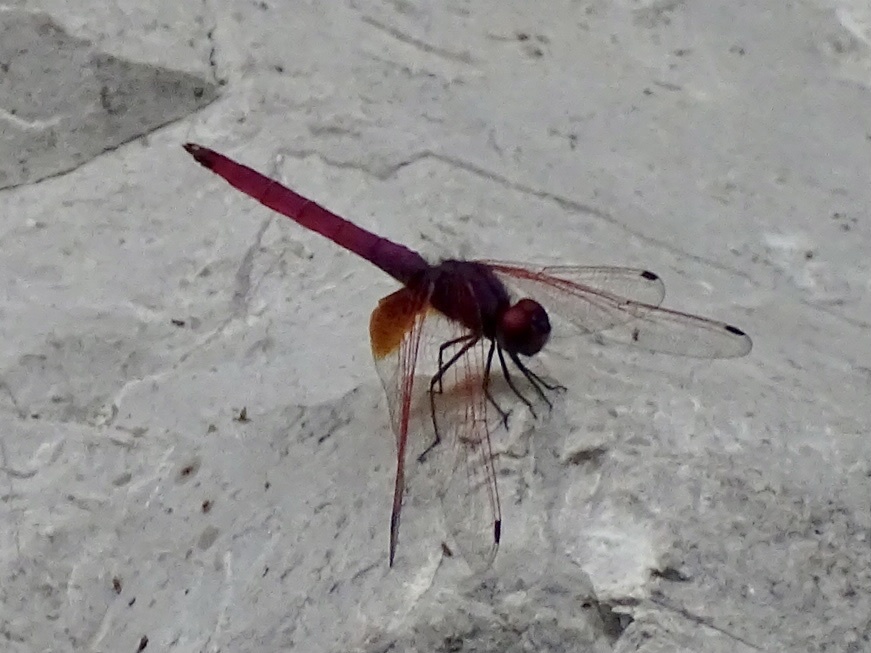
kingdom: Animalia
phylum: Arthropoda
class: Insecta
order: Odonata
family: Libellulidae
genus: Trithemis
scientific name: Trithemis aurora
